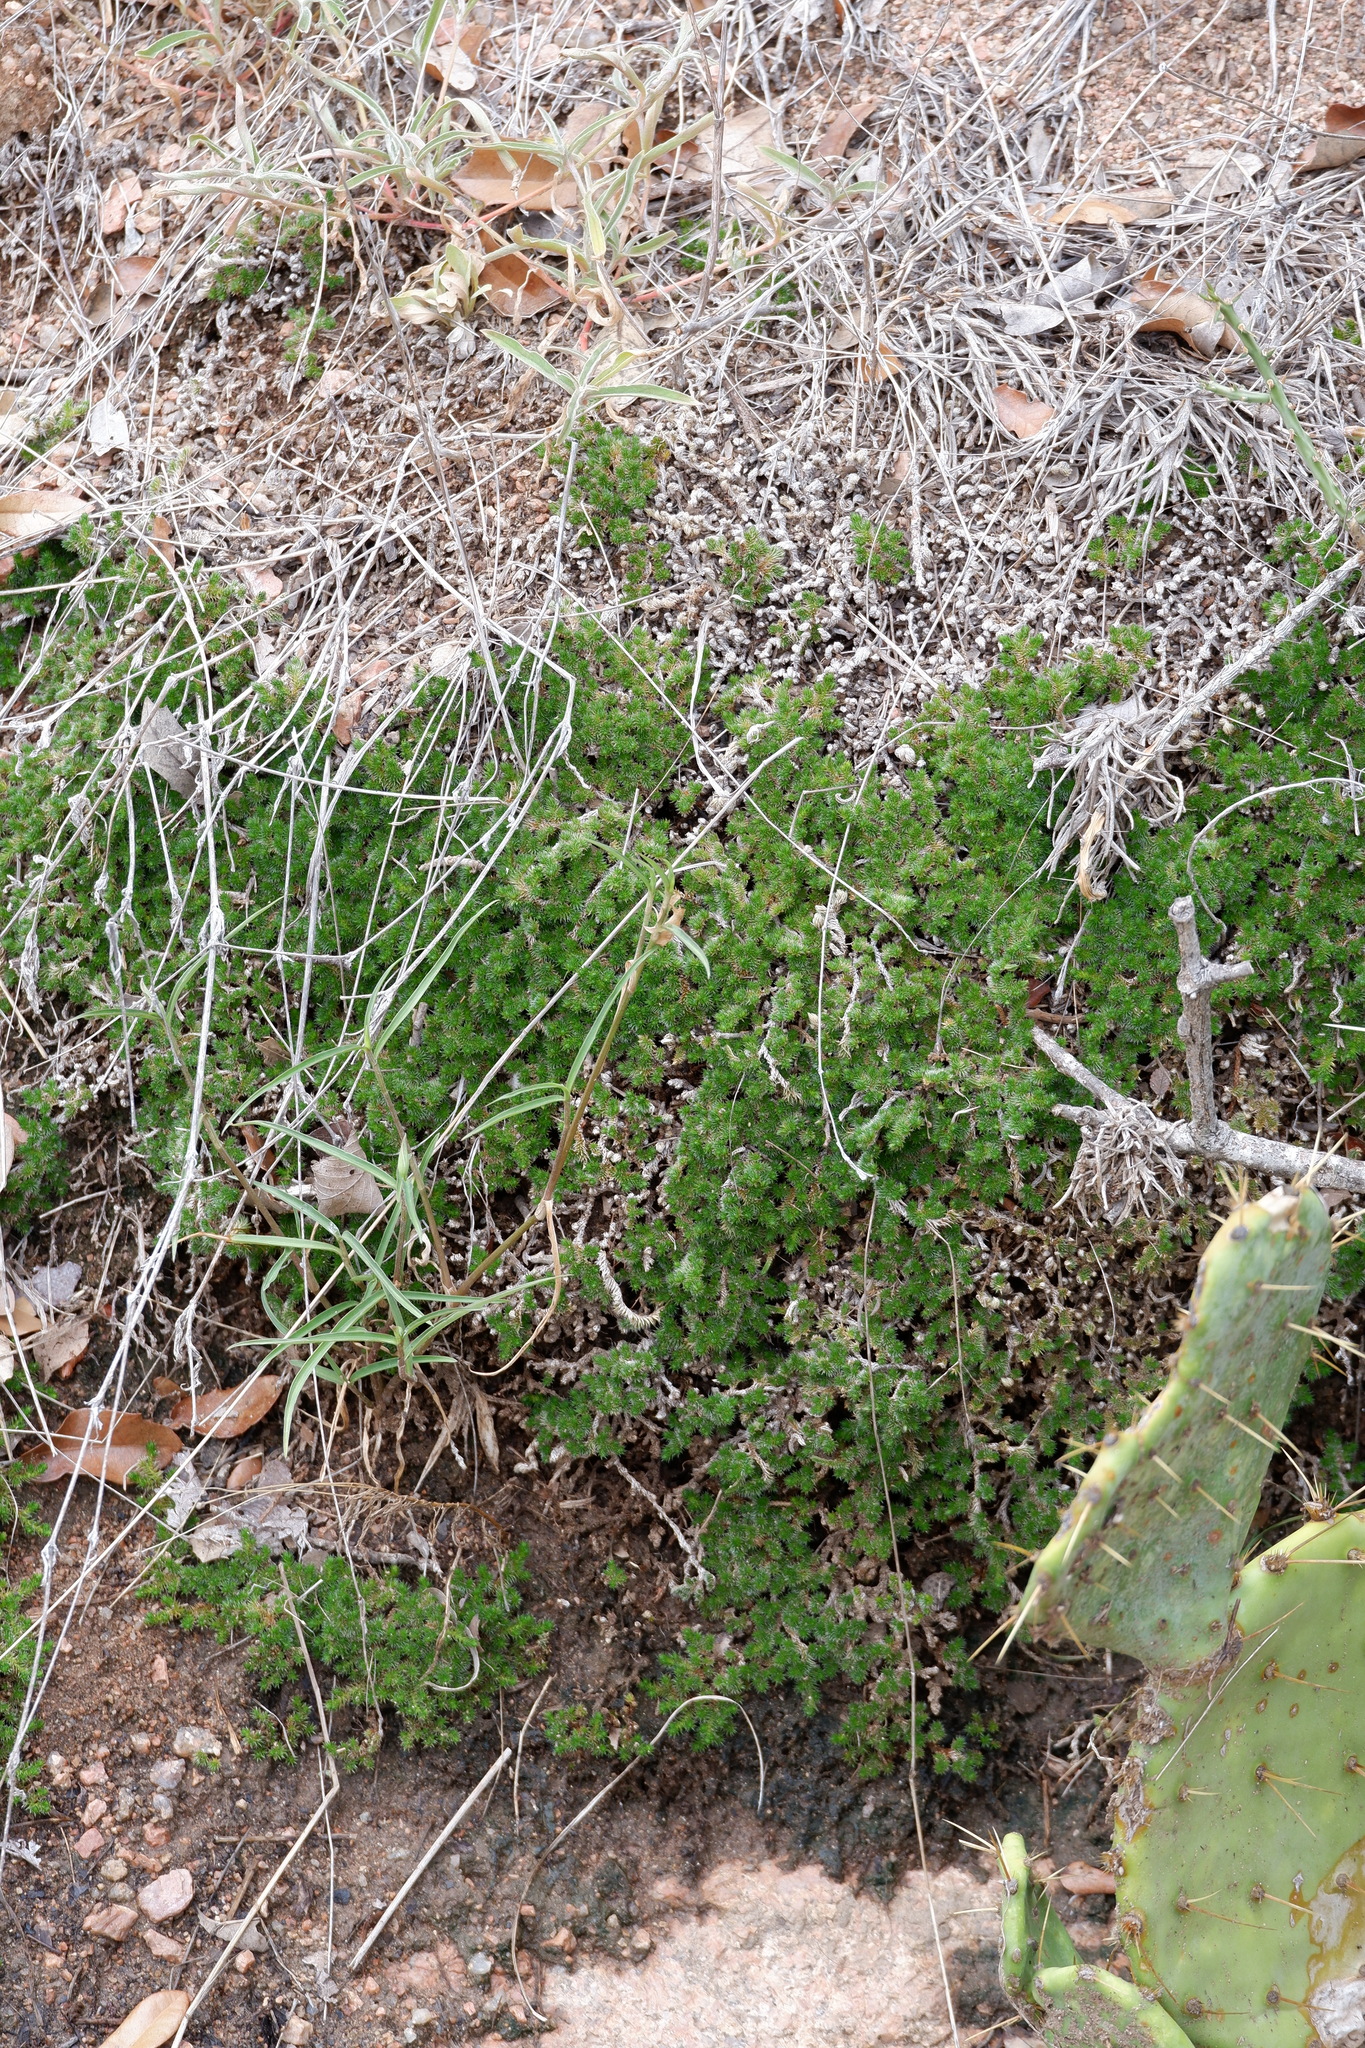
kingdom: Plantae
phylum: Tracheophyta
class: Lycopodiopsida
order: Selaginellales
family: Selaginellaceae
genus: Selaginella
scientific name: Selaginella peruviana
